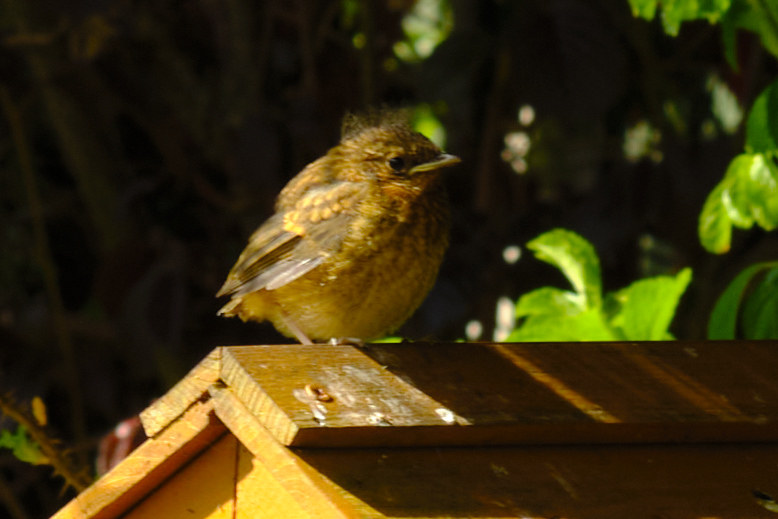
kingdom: Animalia
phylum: Chordata
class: Aves
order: Passeriformes
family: Muscicapidae
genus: Erithacus
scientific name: Erithacus rubecula
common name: European robin
